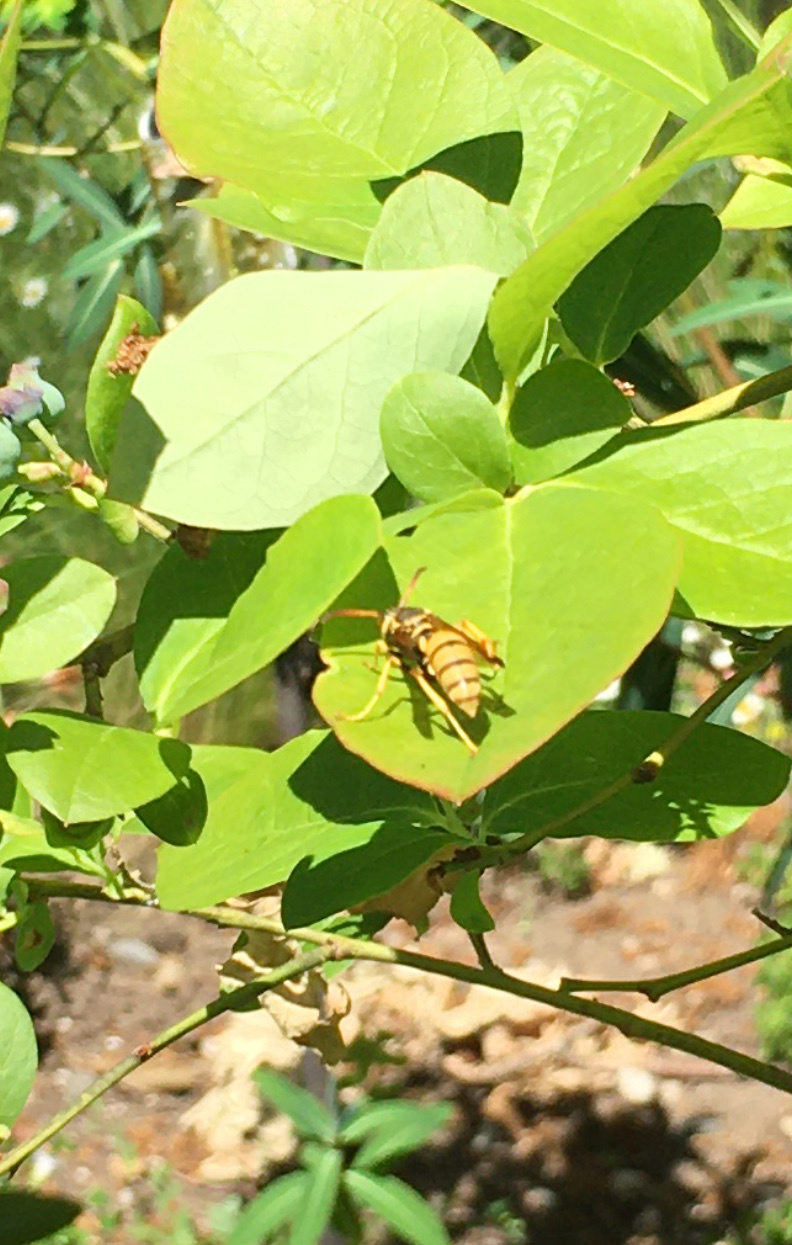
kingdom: Animalia
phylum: Arthropoda
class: Insecta
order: Hymenoptera
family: Eumenidae
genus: Polistes
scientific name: Polistes aurifer
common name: Paper wasp
